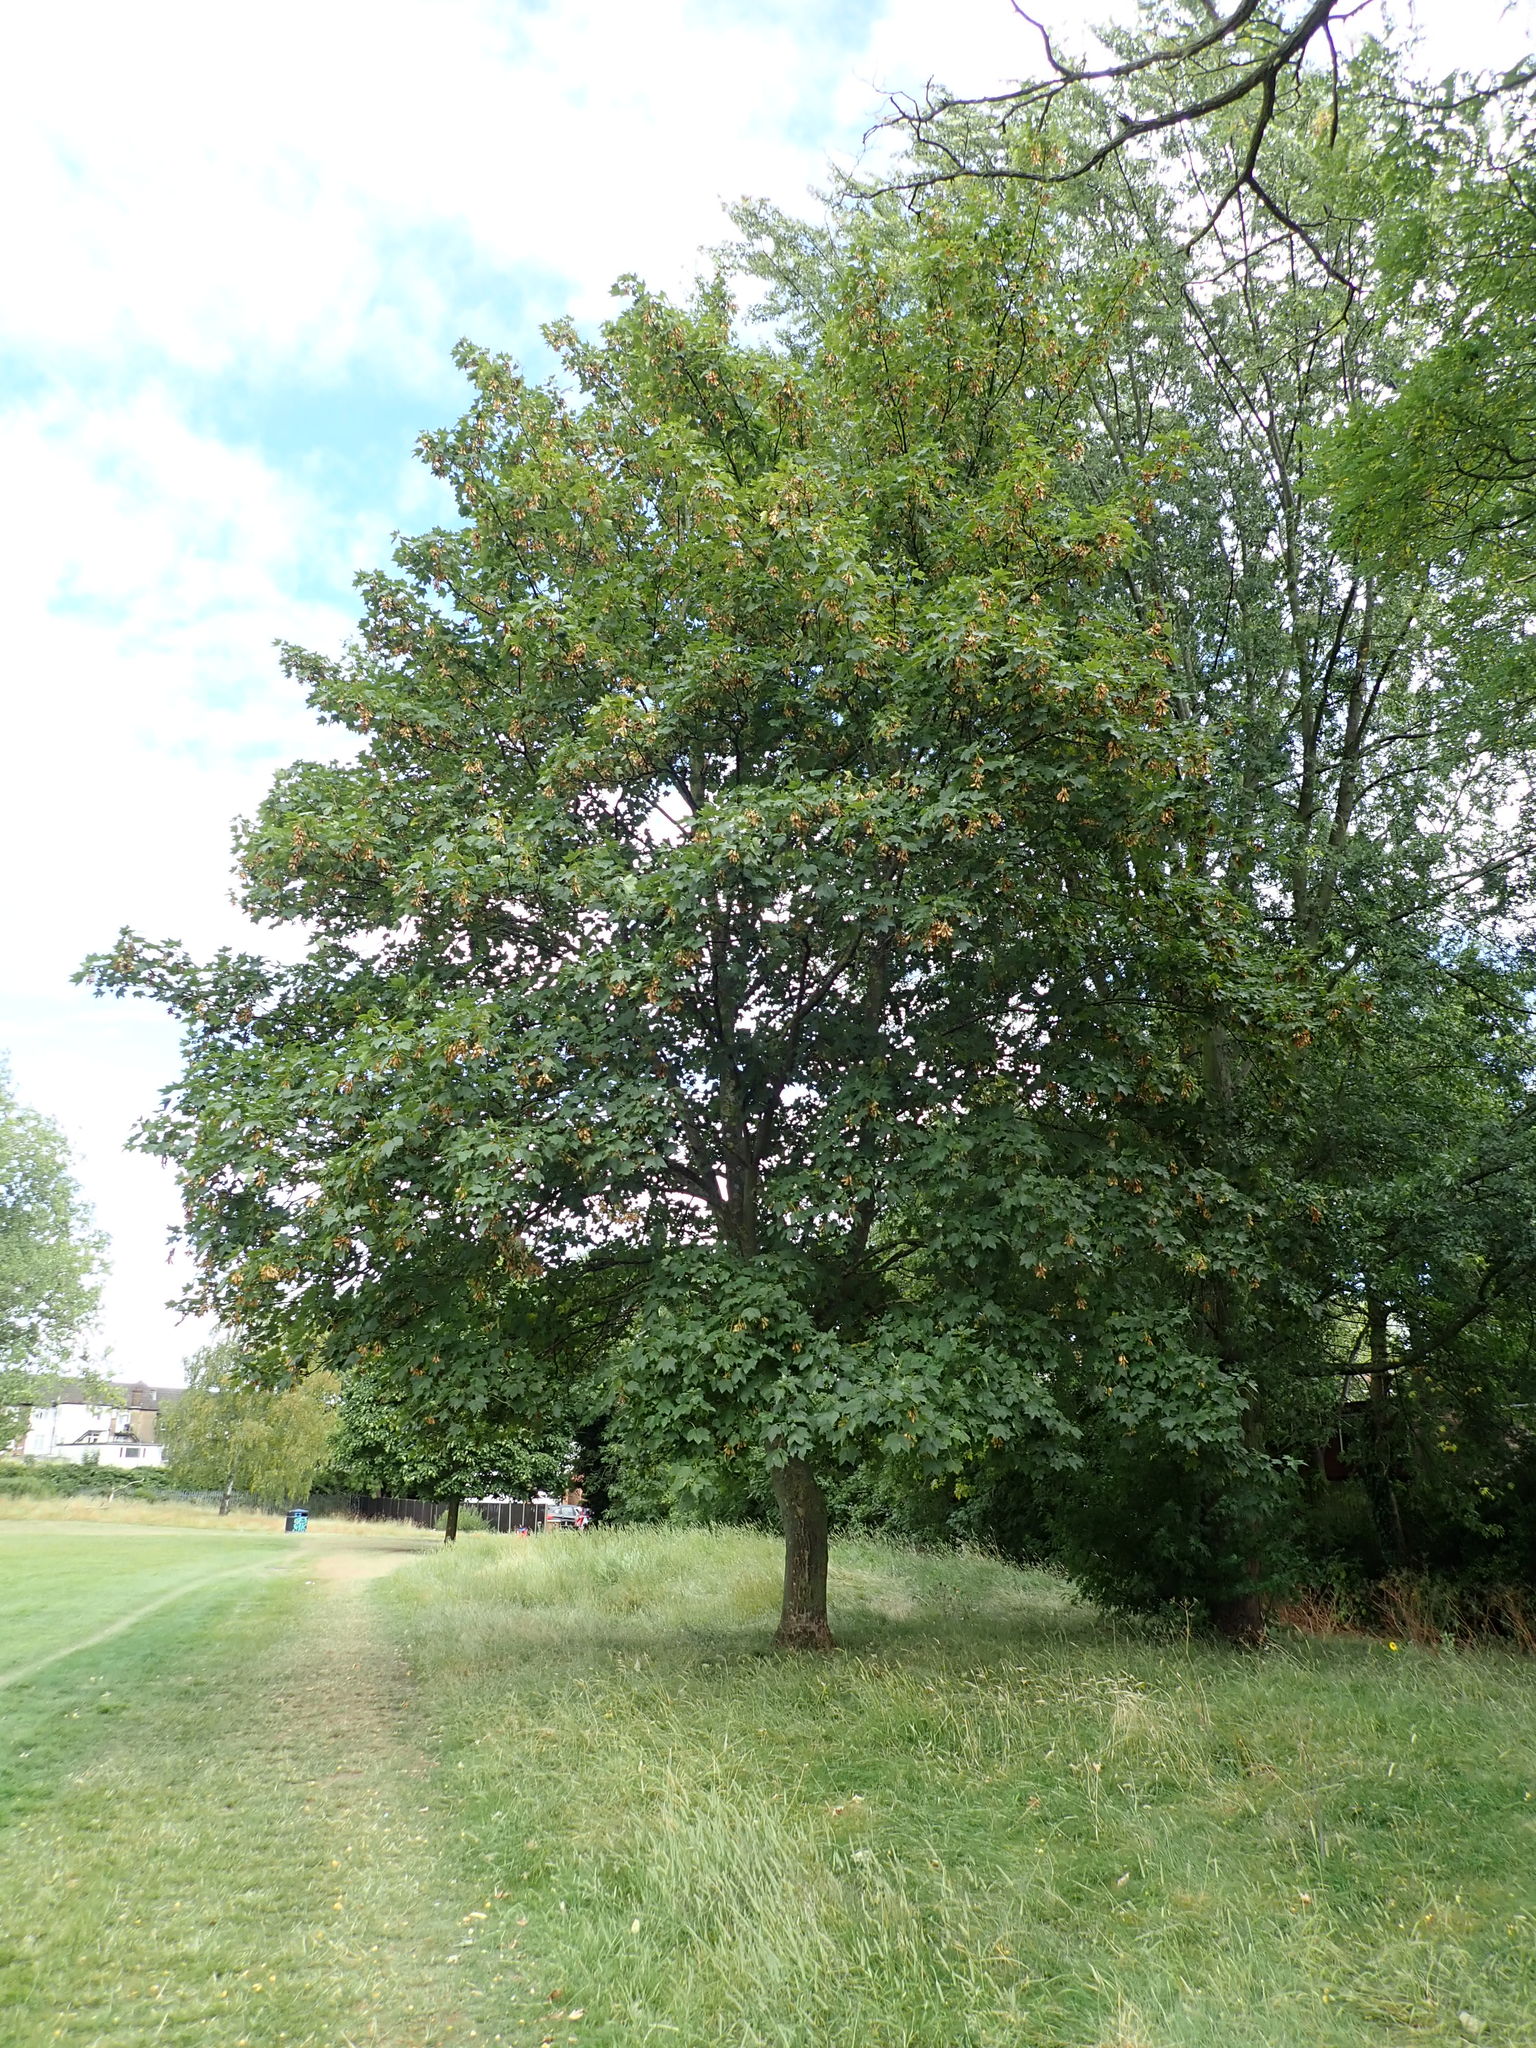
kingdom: Plantae
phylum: Tracheophyta
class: Magnoliopsida
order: Sapindales
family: Sapindaceae
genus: Acer
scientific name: Acer pseudoplatanus
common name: Sycamore
